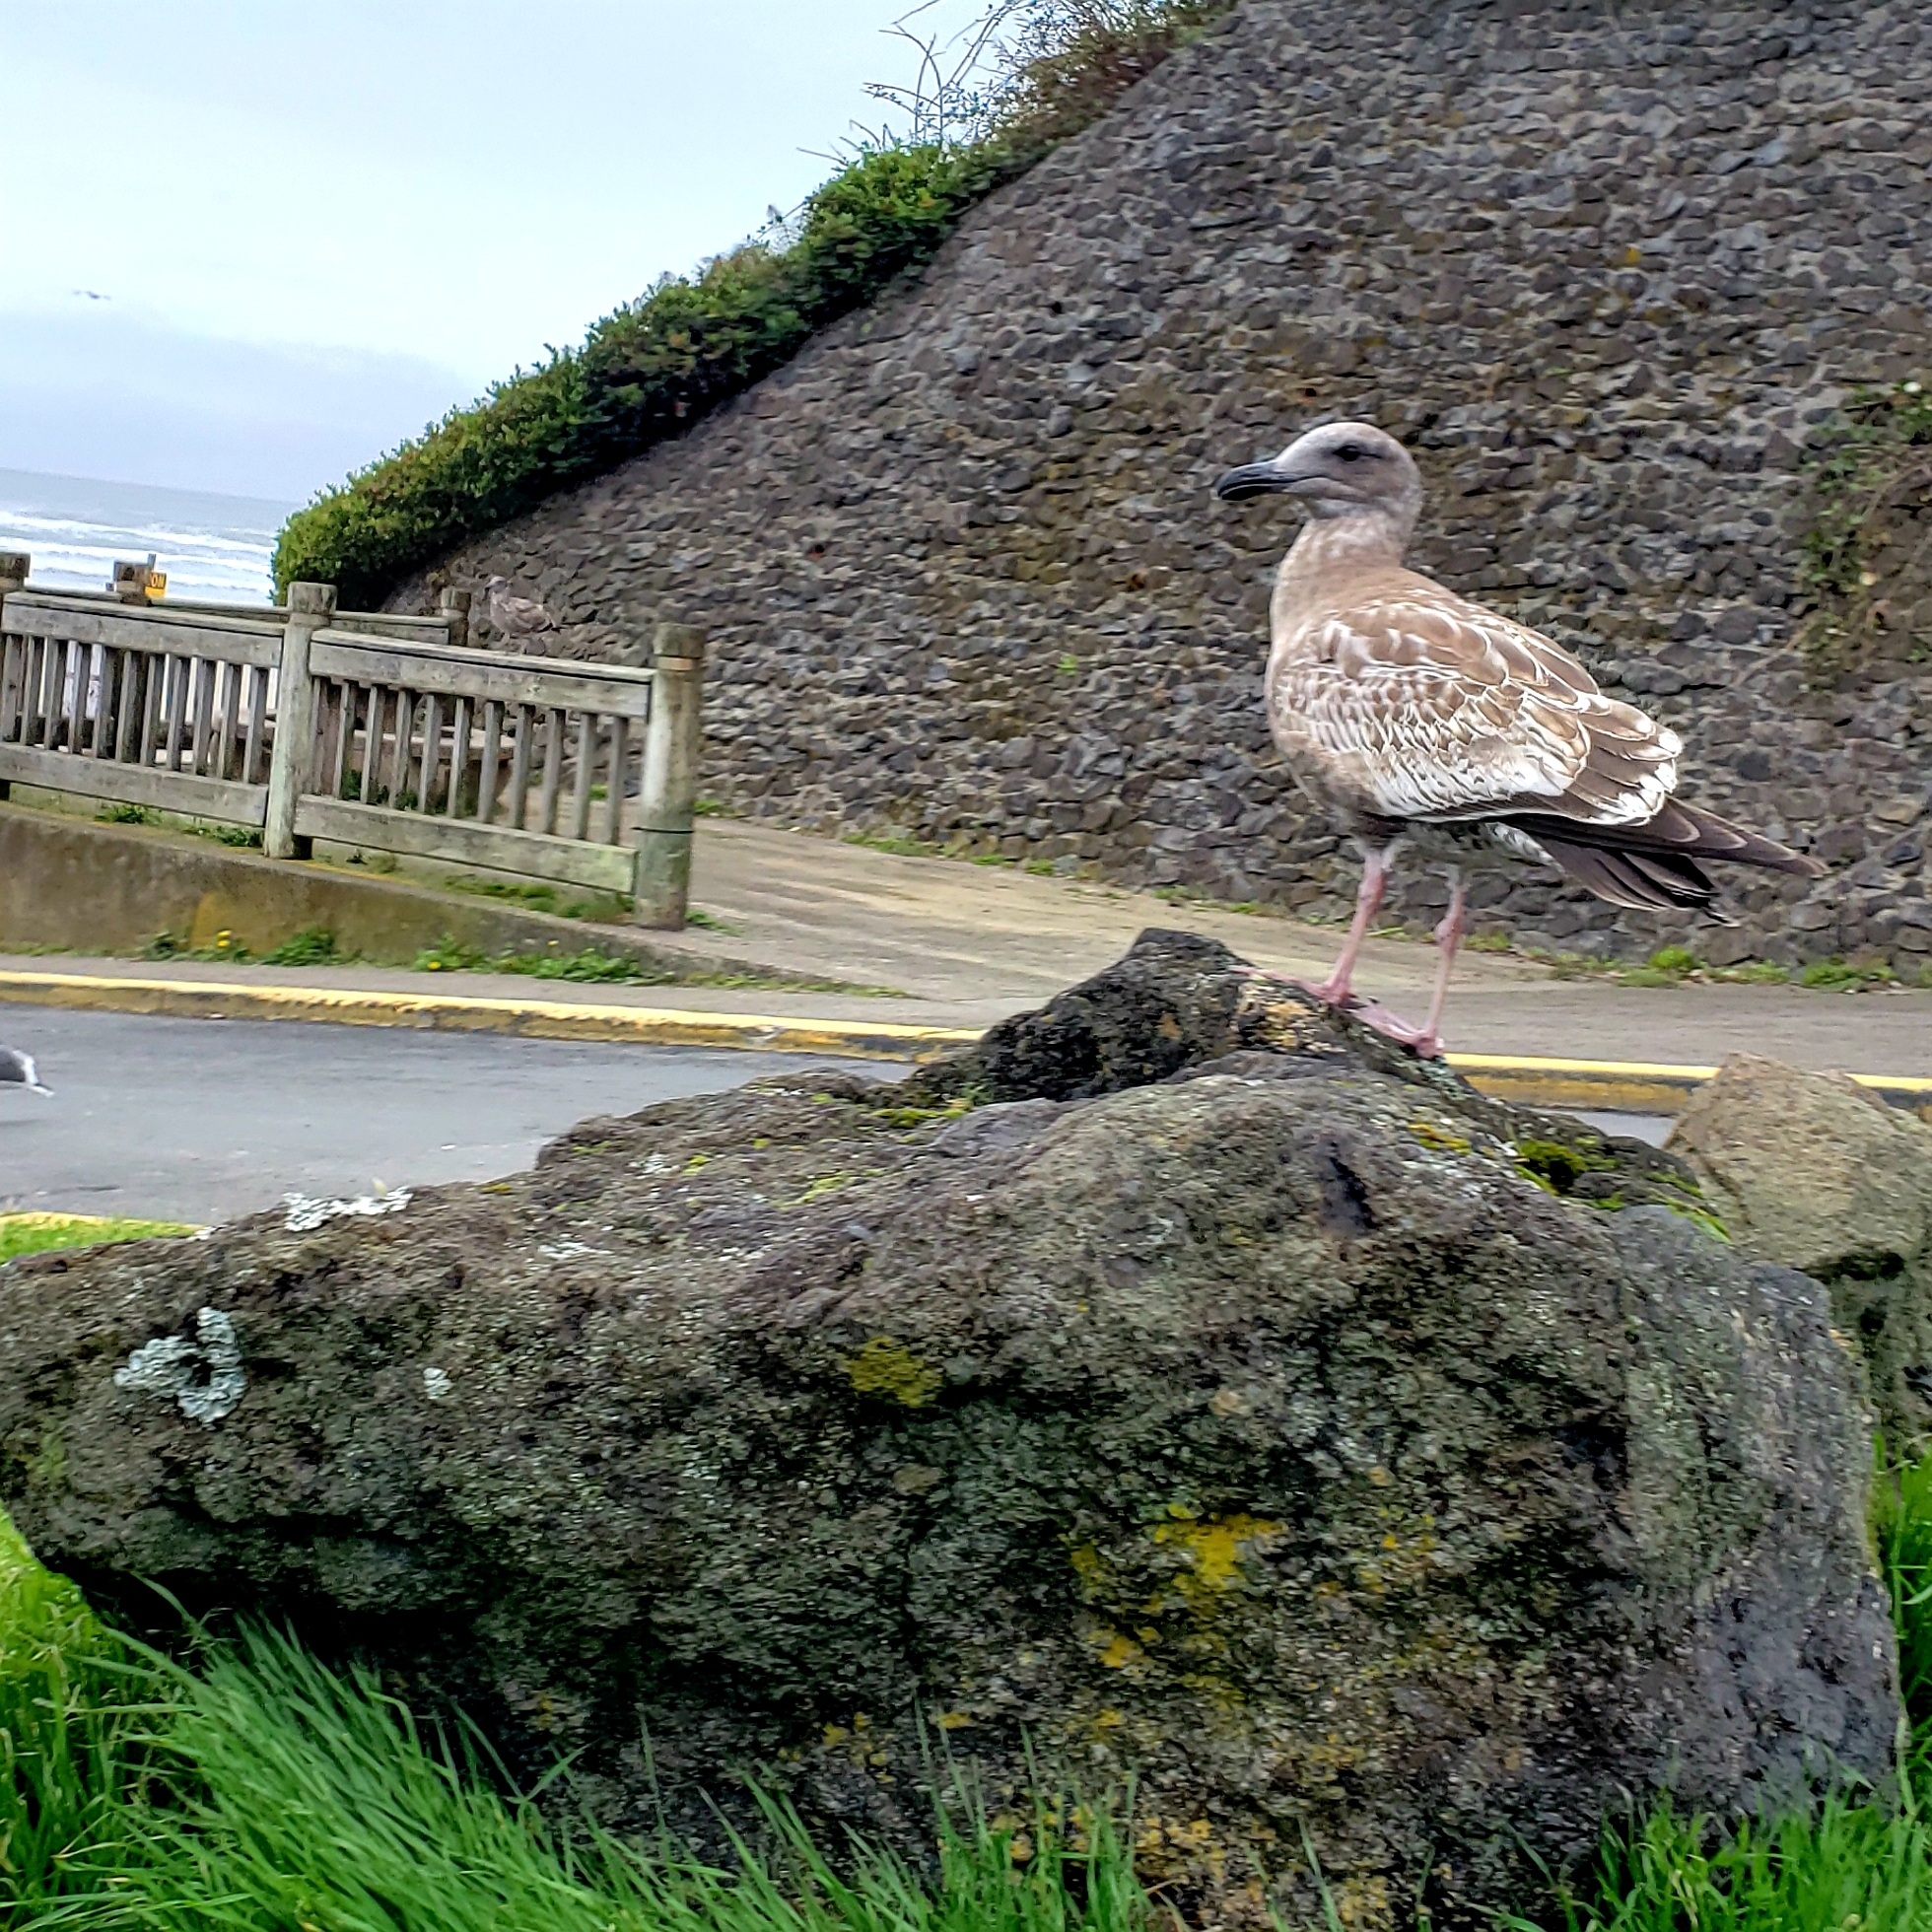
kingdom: Animalia
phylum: Chordata
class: Aves
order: Charadriiformes
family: Laridae
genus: Larus
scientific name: Larus occidentalis
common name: Western gull
